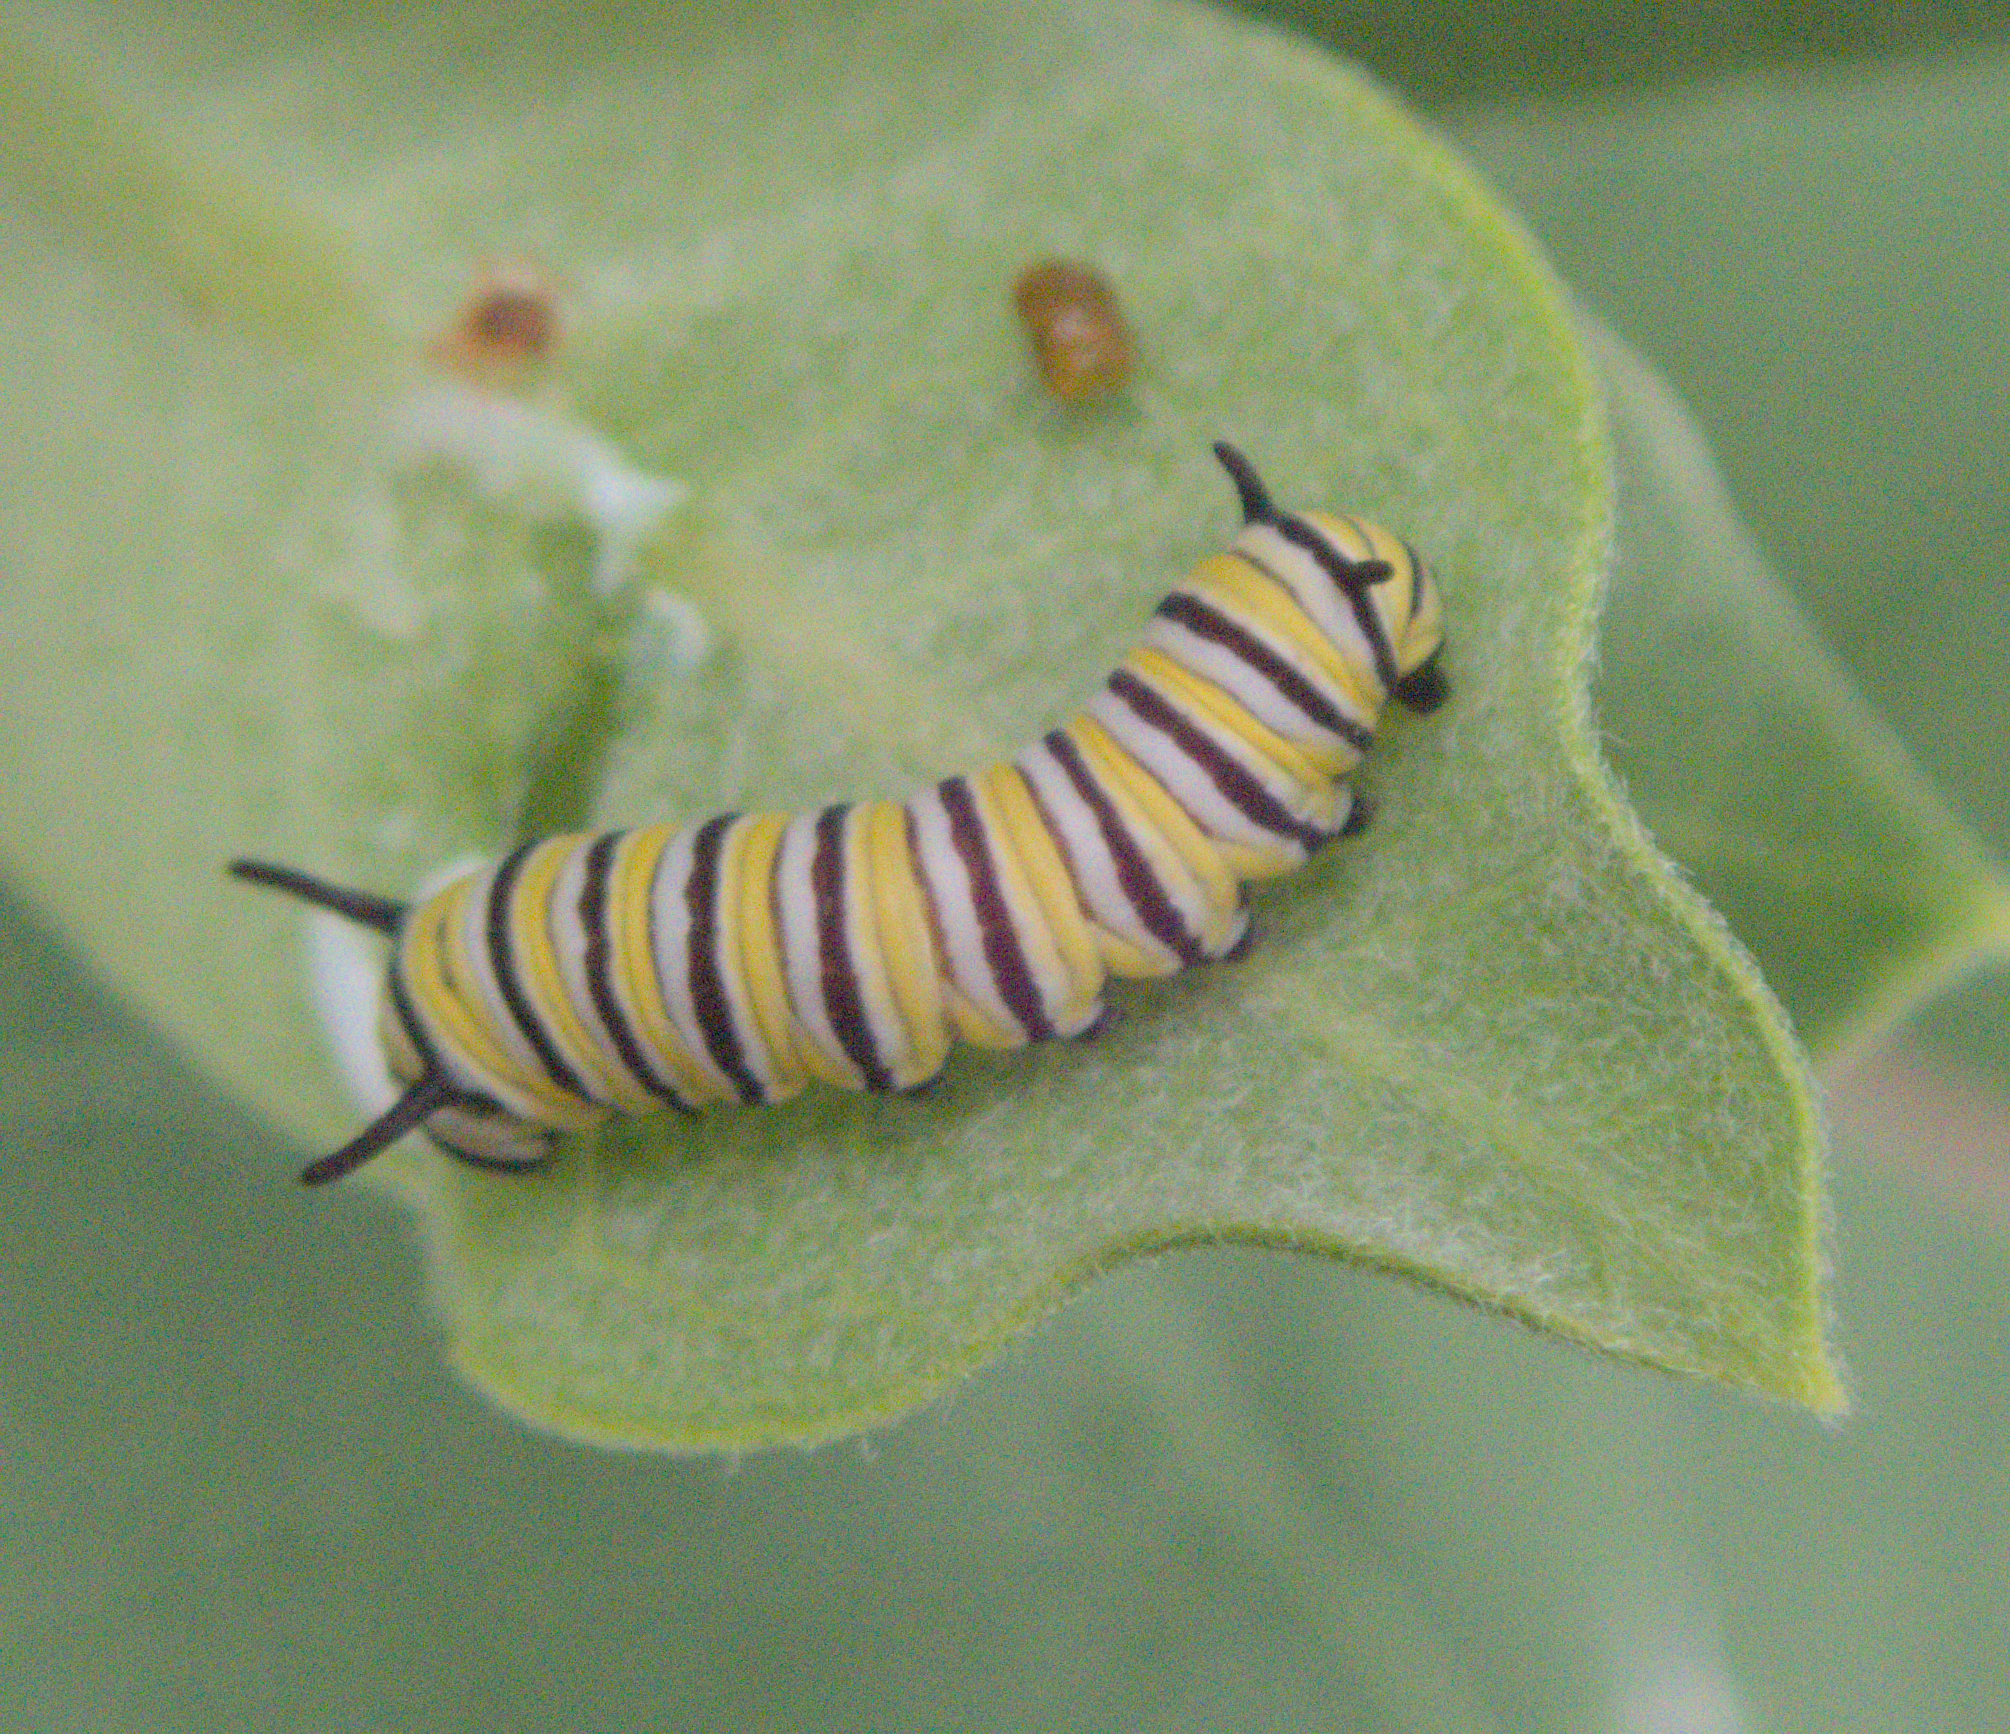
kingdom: Animalia
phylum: Arthropoda
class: Insecta
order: Lepidoptera
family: Nymphalidae
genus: Danaus
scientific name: Danaus plexippus
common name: Monarch
